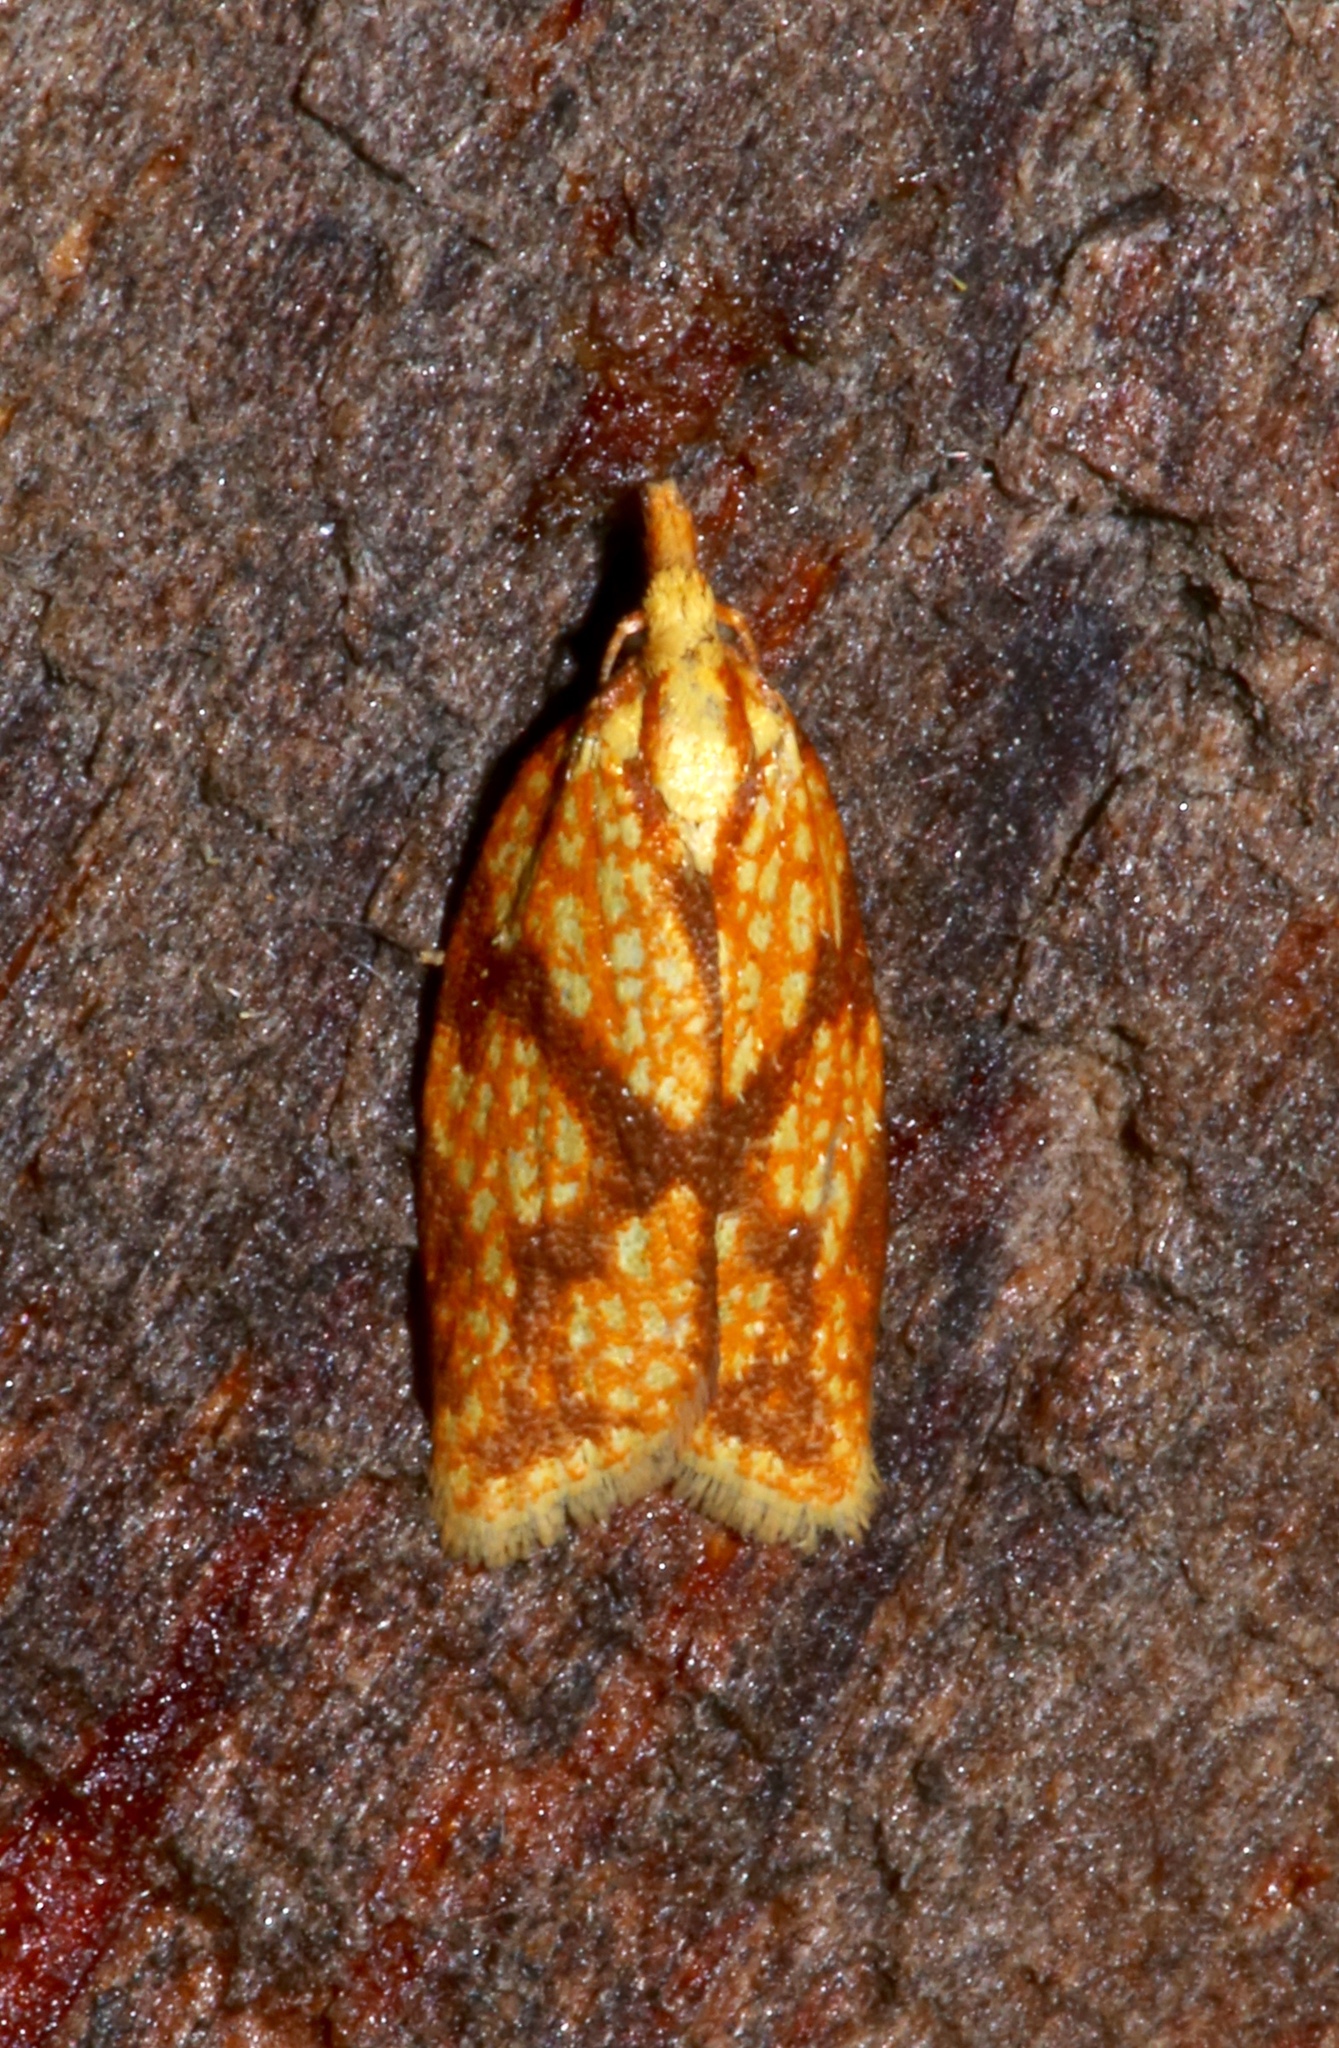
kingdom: Animalia
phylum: Arthropoda
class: Insecta
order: Lepidoptera
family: Tortricidae
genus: Sparganothis
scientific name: Sparganothis sulfureana
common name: Sparganothis fruitworm moth
